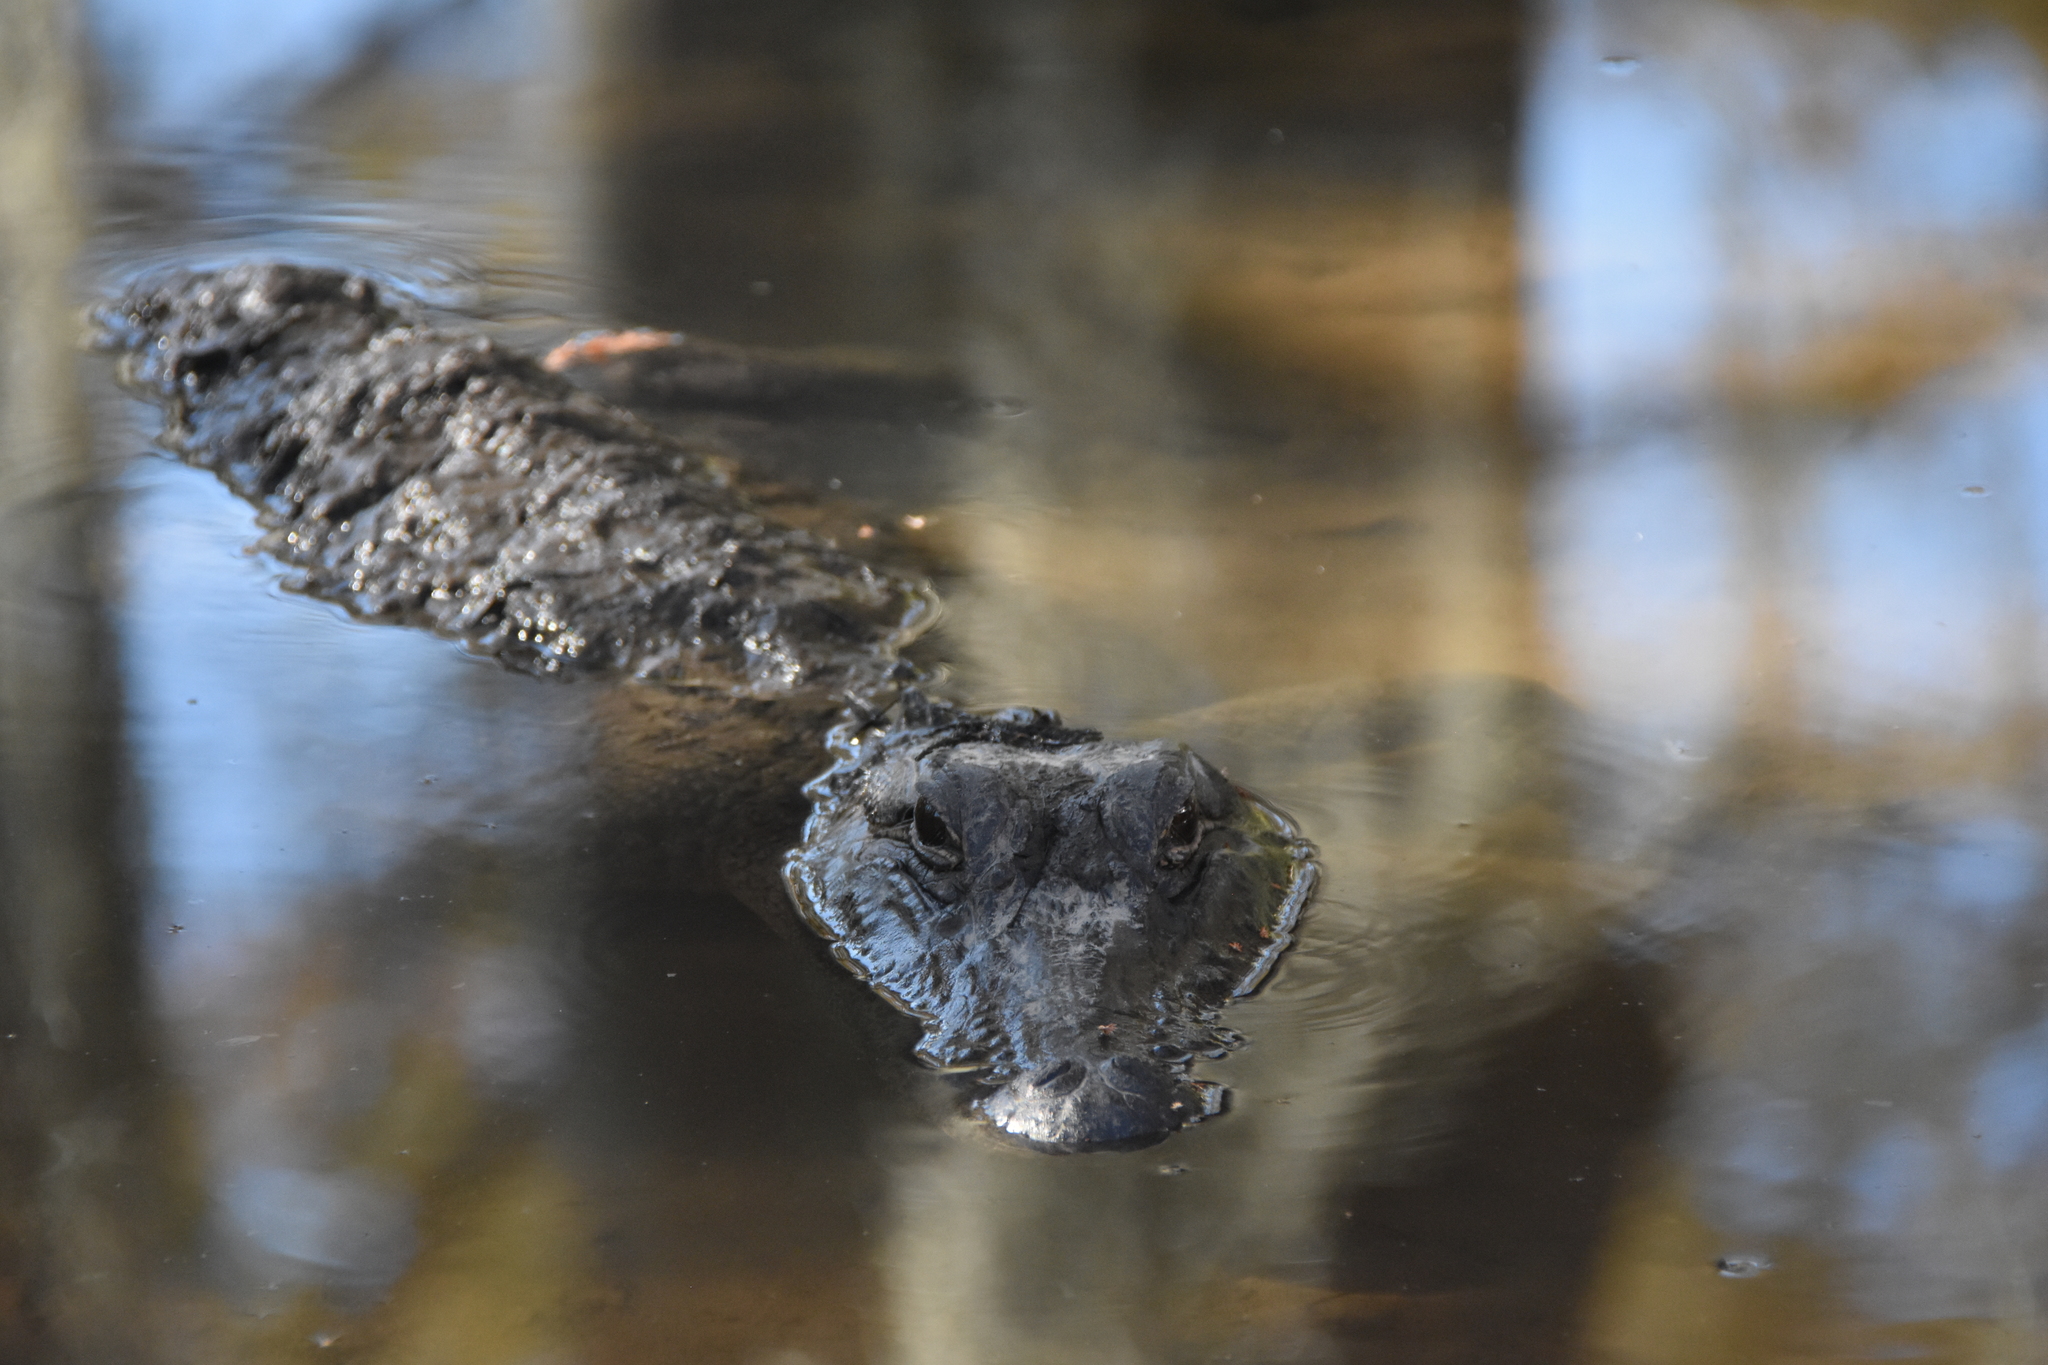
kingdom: Animalia
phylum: Chordata
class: Crocodylia
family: Alligatoridae
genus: Alligator
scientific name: Alligator mississippiensis
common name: American alligator
